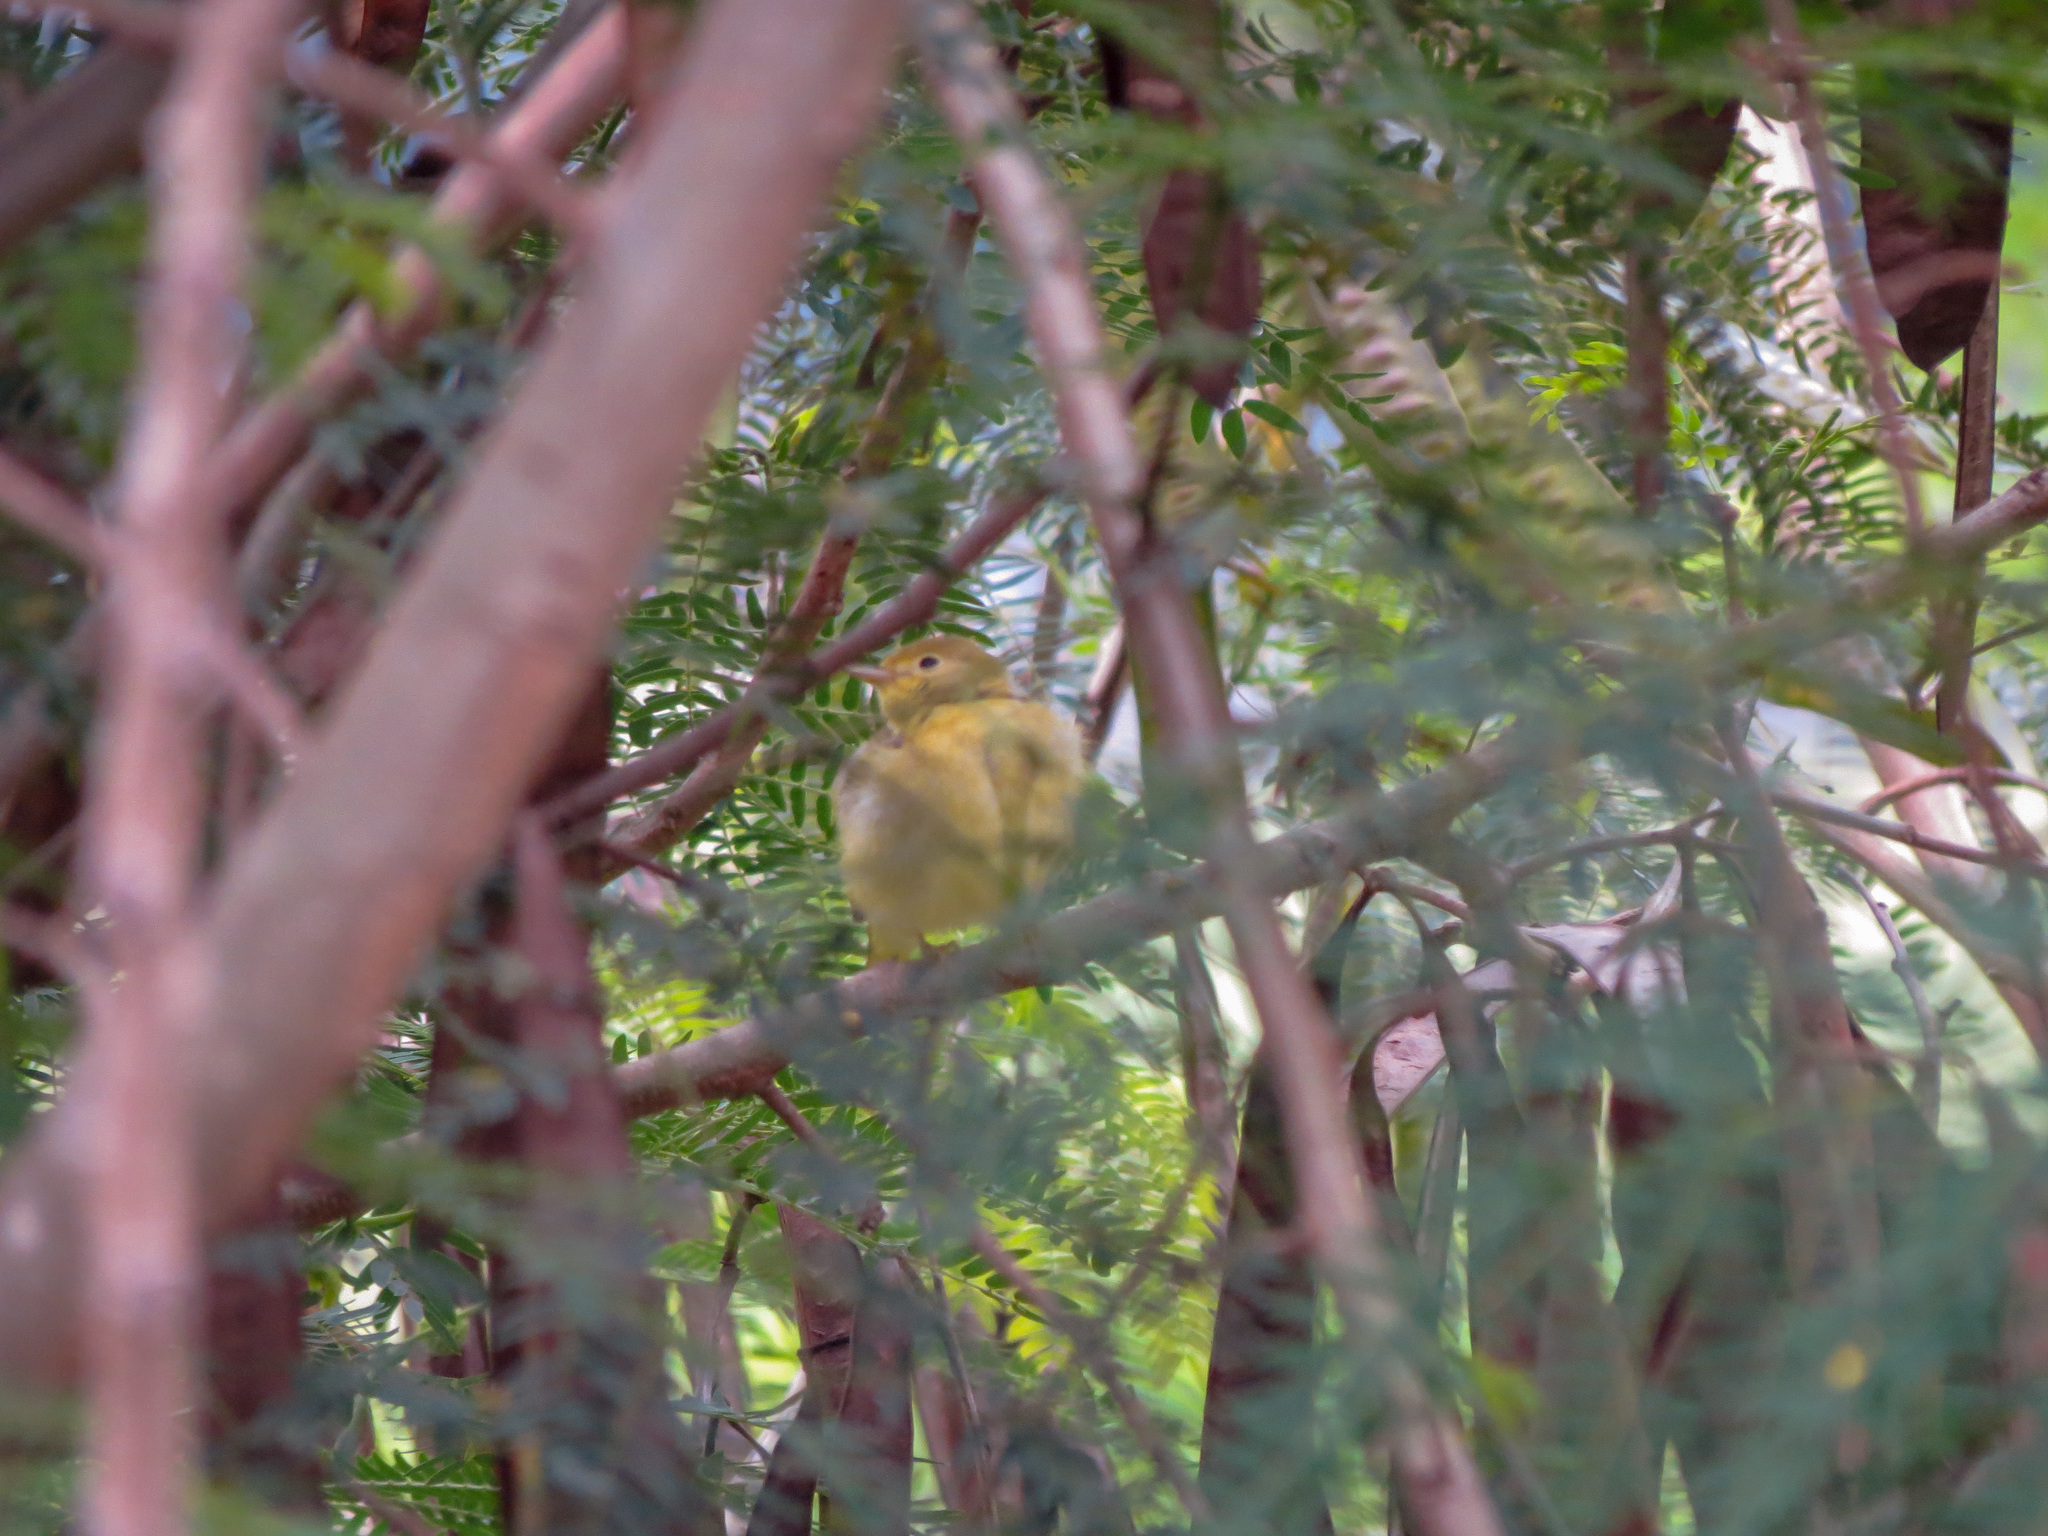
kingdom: Animalia
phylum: Chordata
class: Aves
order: Passeriformes
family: Parulidae
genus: Setophaga
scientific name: Setophaga petechia
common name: Yellow warbler
